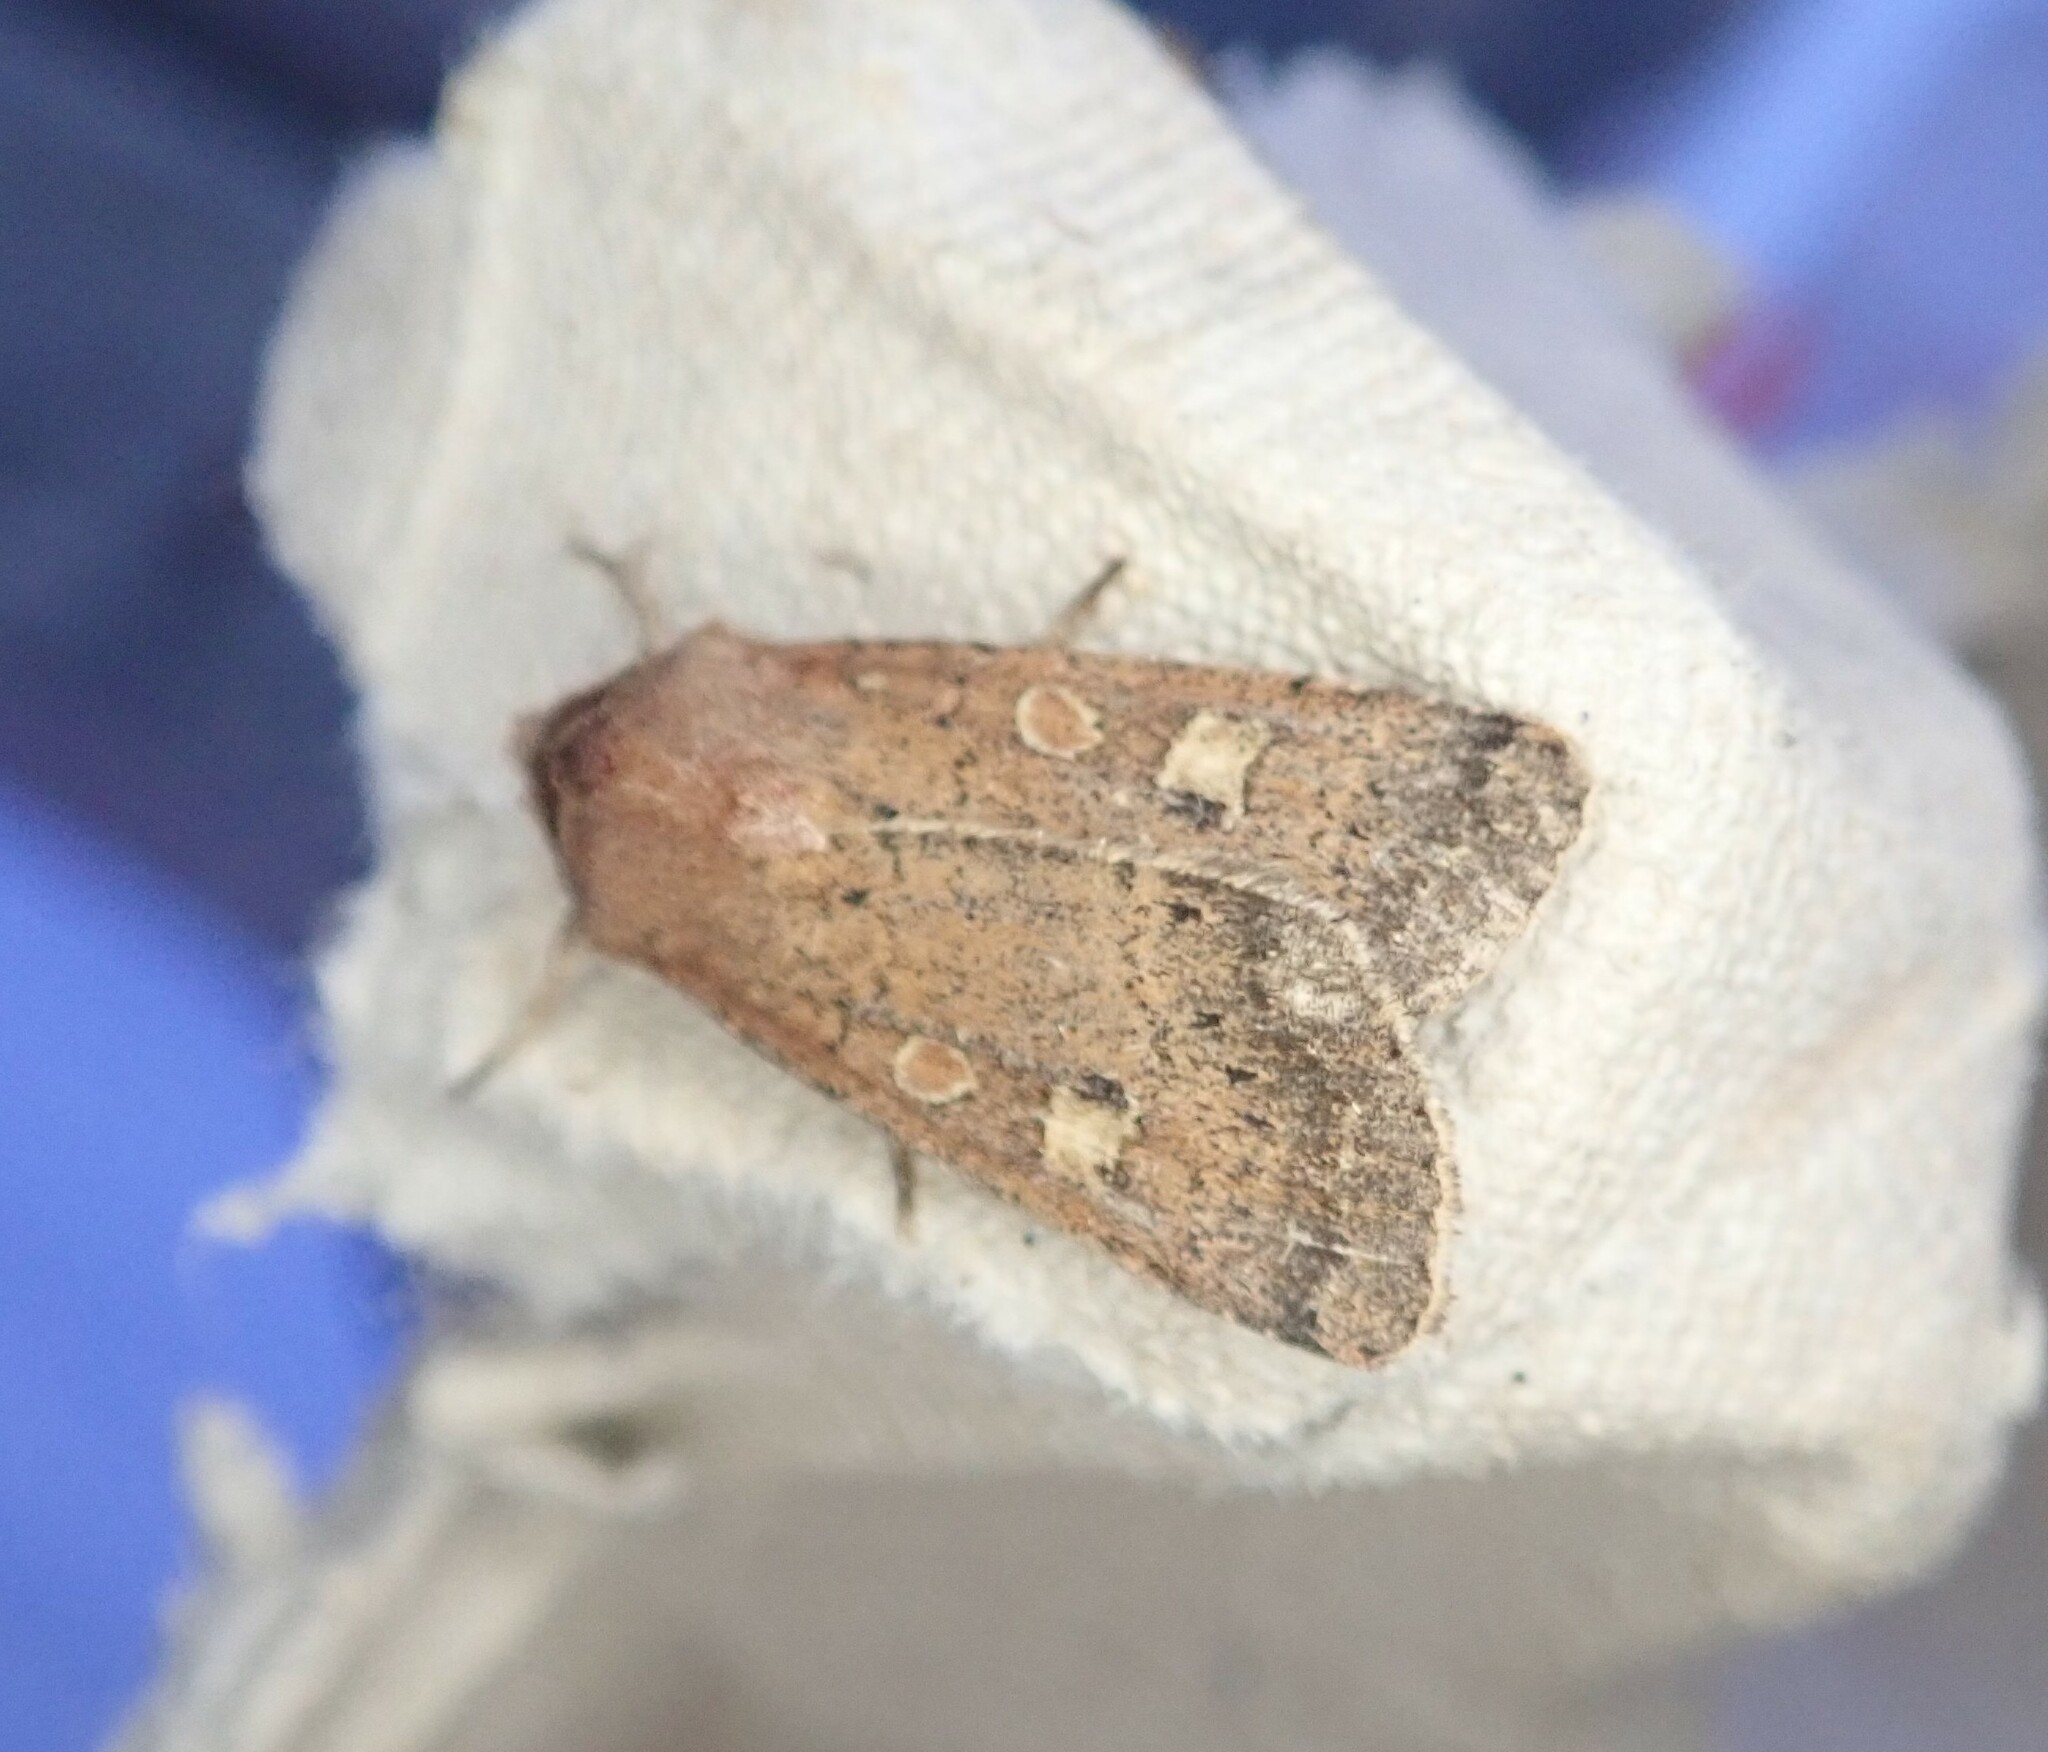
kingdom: Animalia
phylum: Arthropoda
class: Insecta
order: Lepidoptera
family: Noctuidae
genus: Xestia
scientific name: Xestia xanthographa
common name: Square-spot rustic
